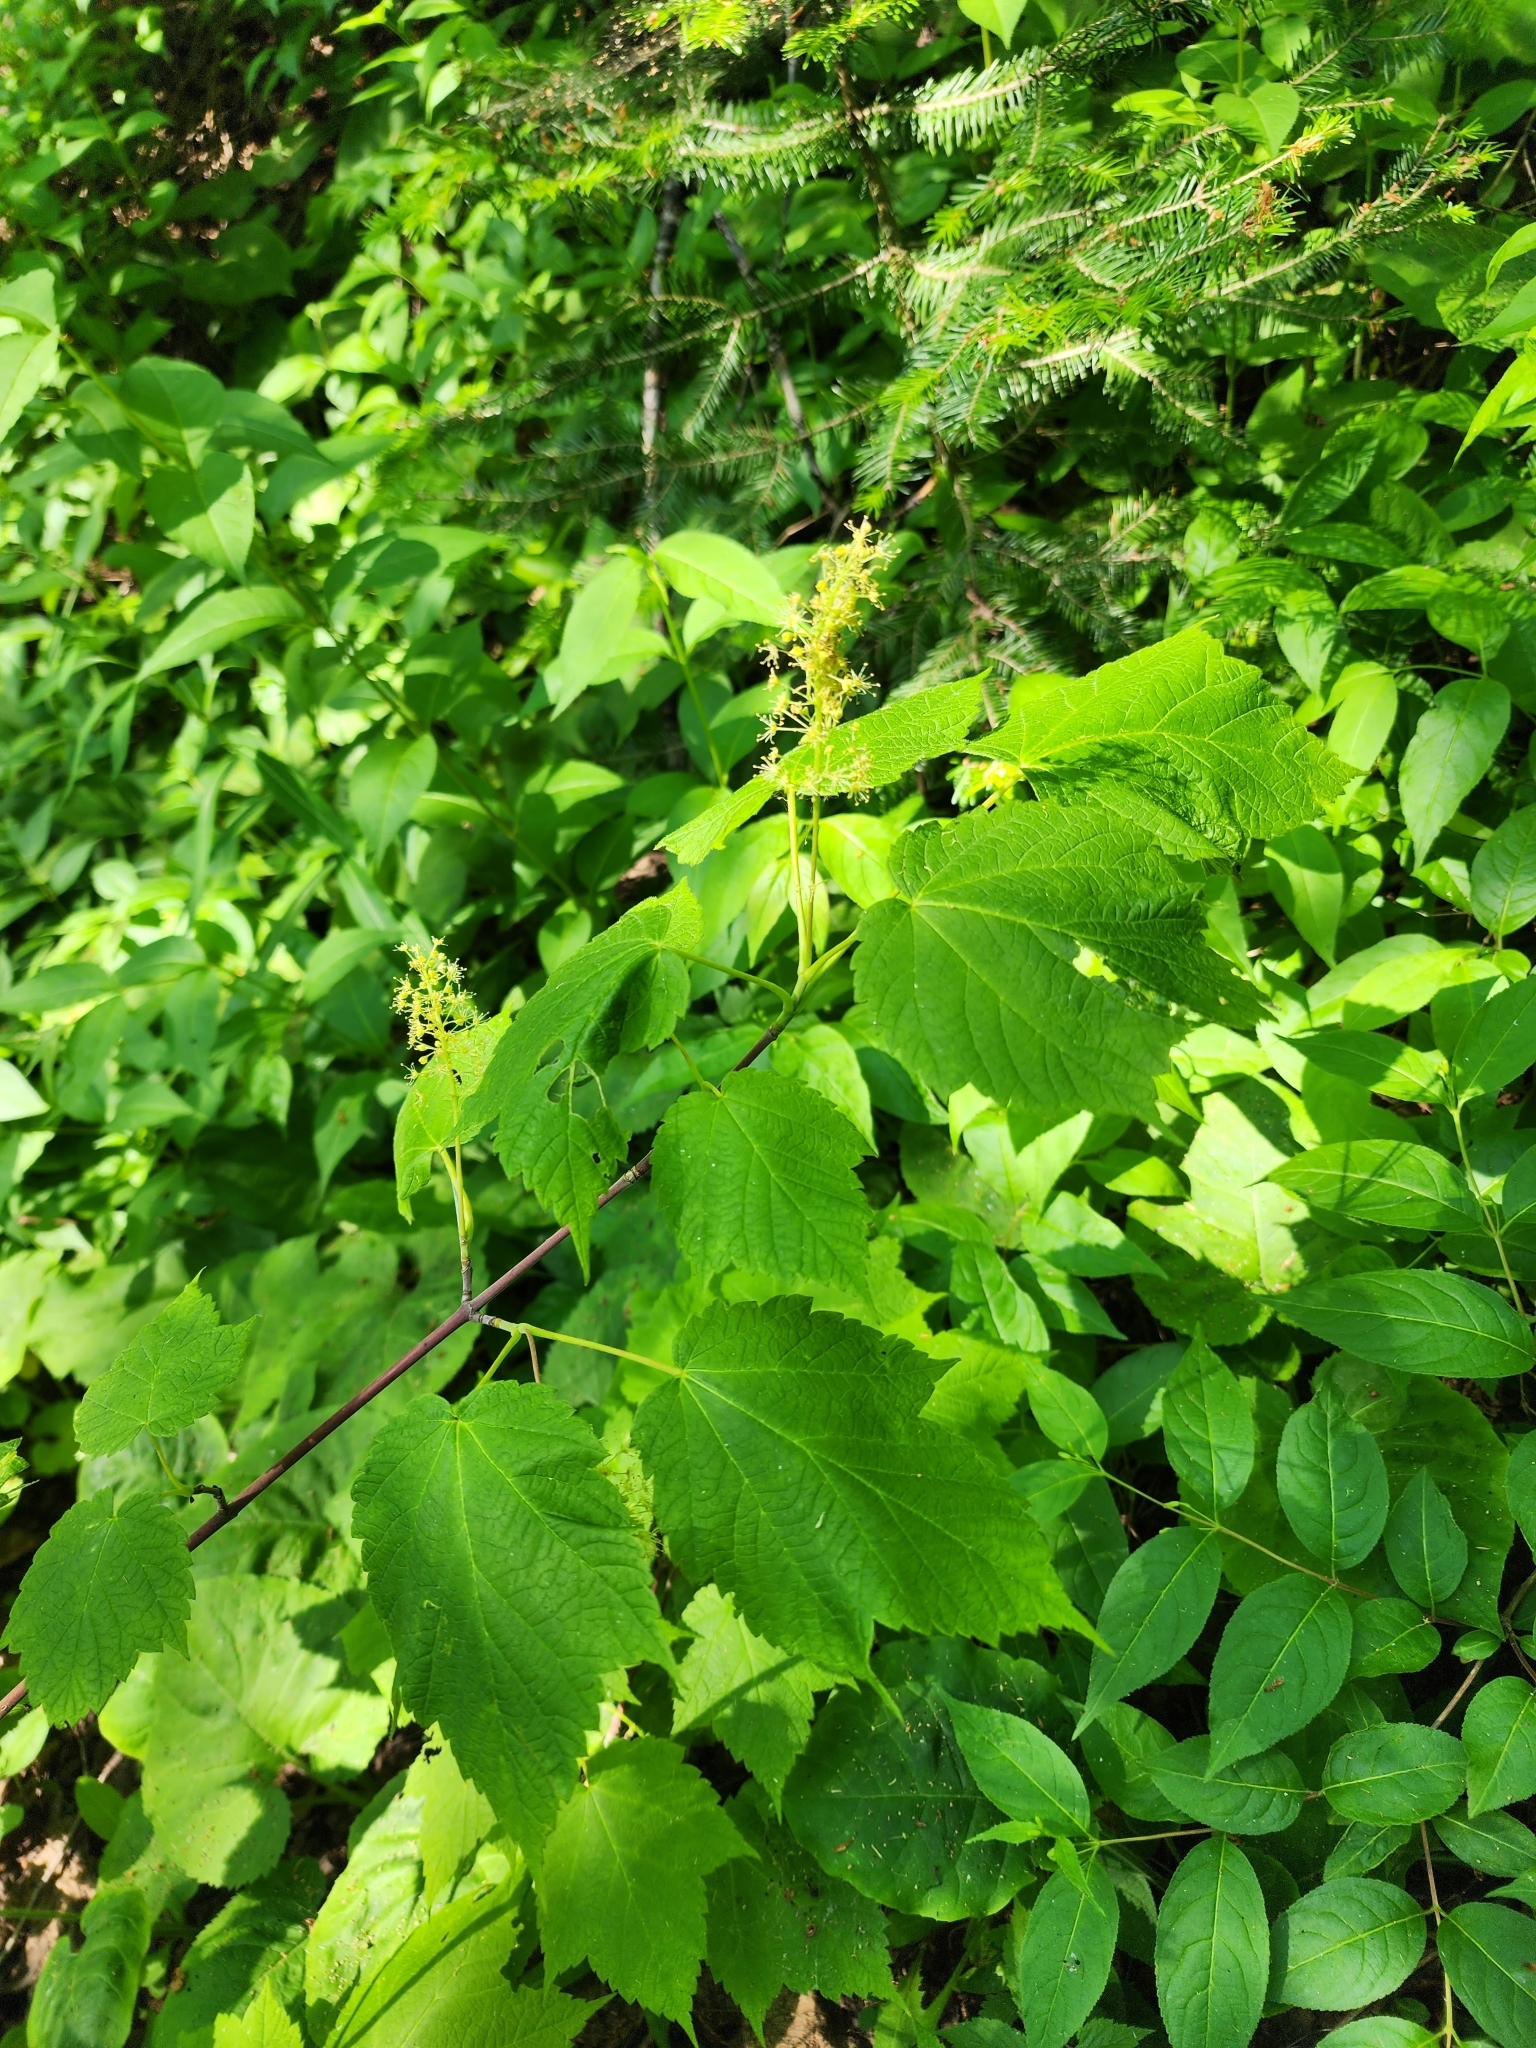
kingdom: Plantae
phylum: Tracheophyta
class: Magnoliopsida
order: Sapindales
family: Sapindaceae
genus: Acer
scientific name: Acer spicatum
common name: Mountain maple
